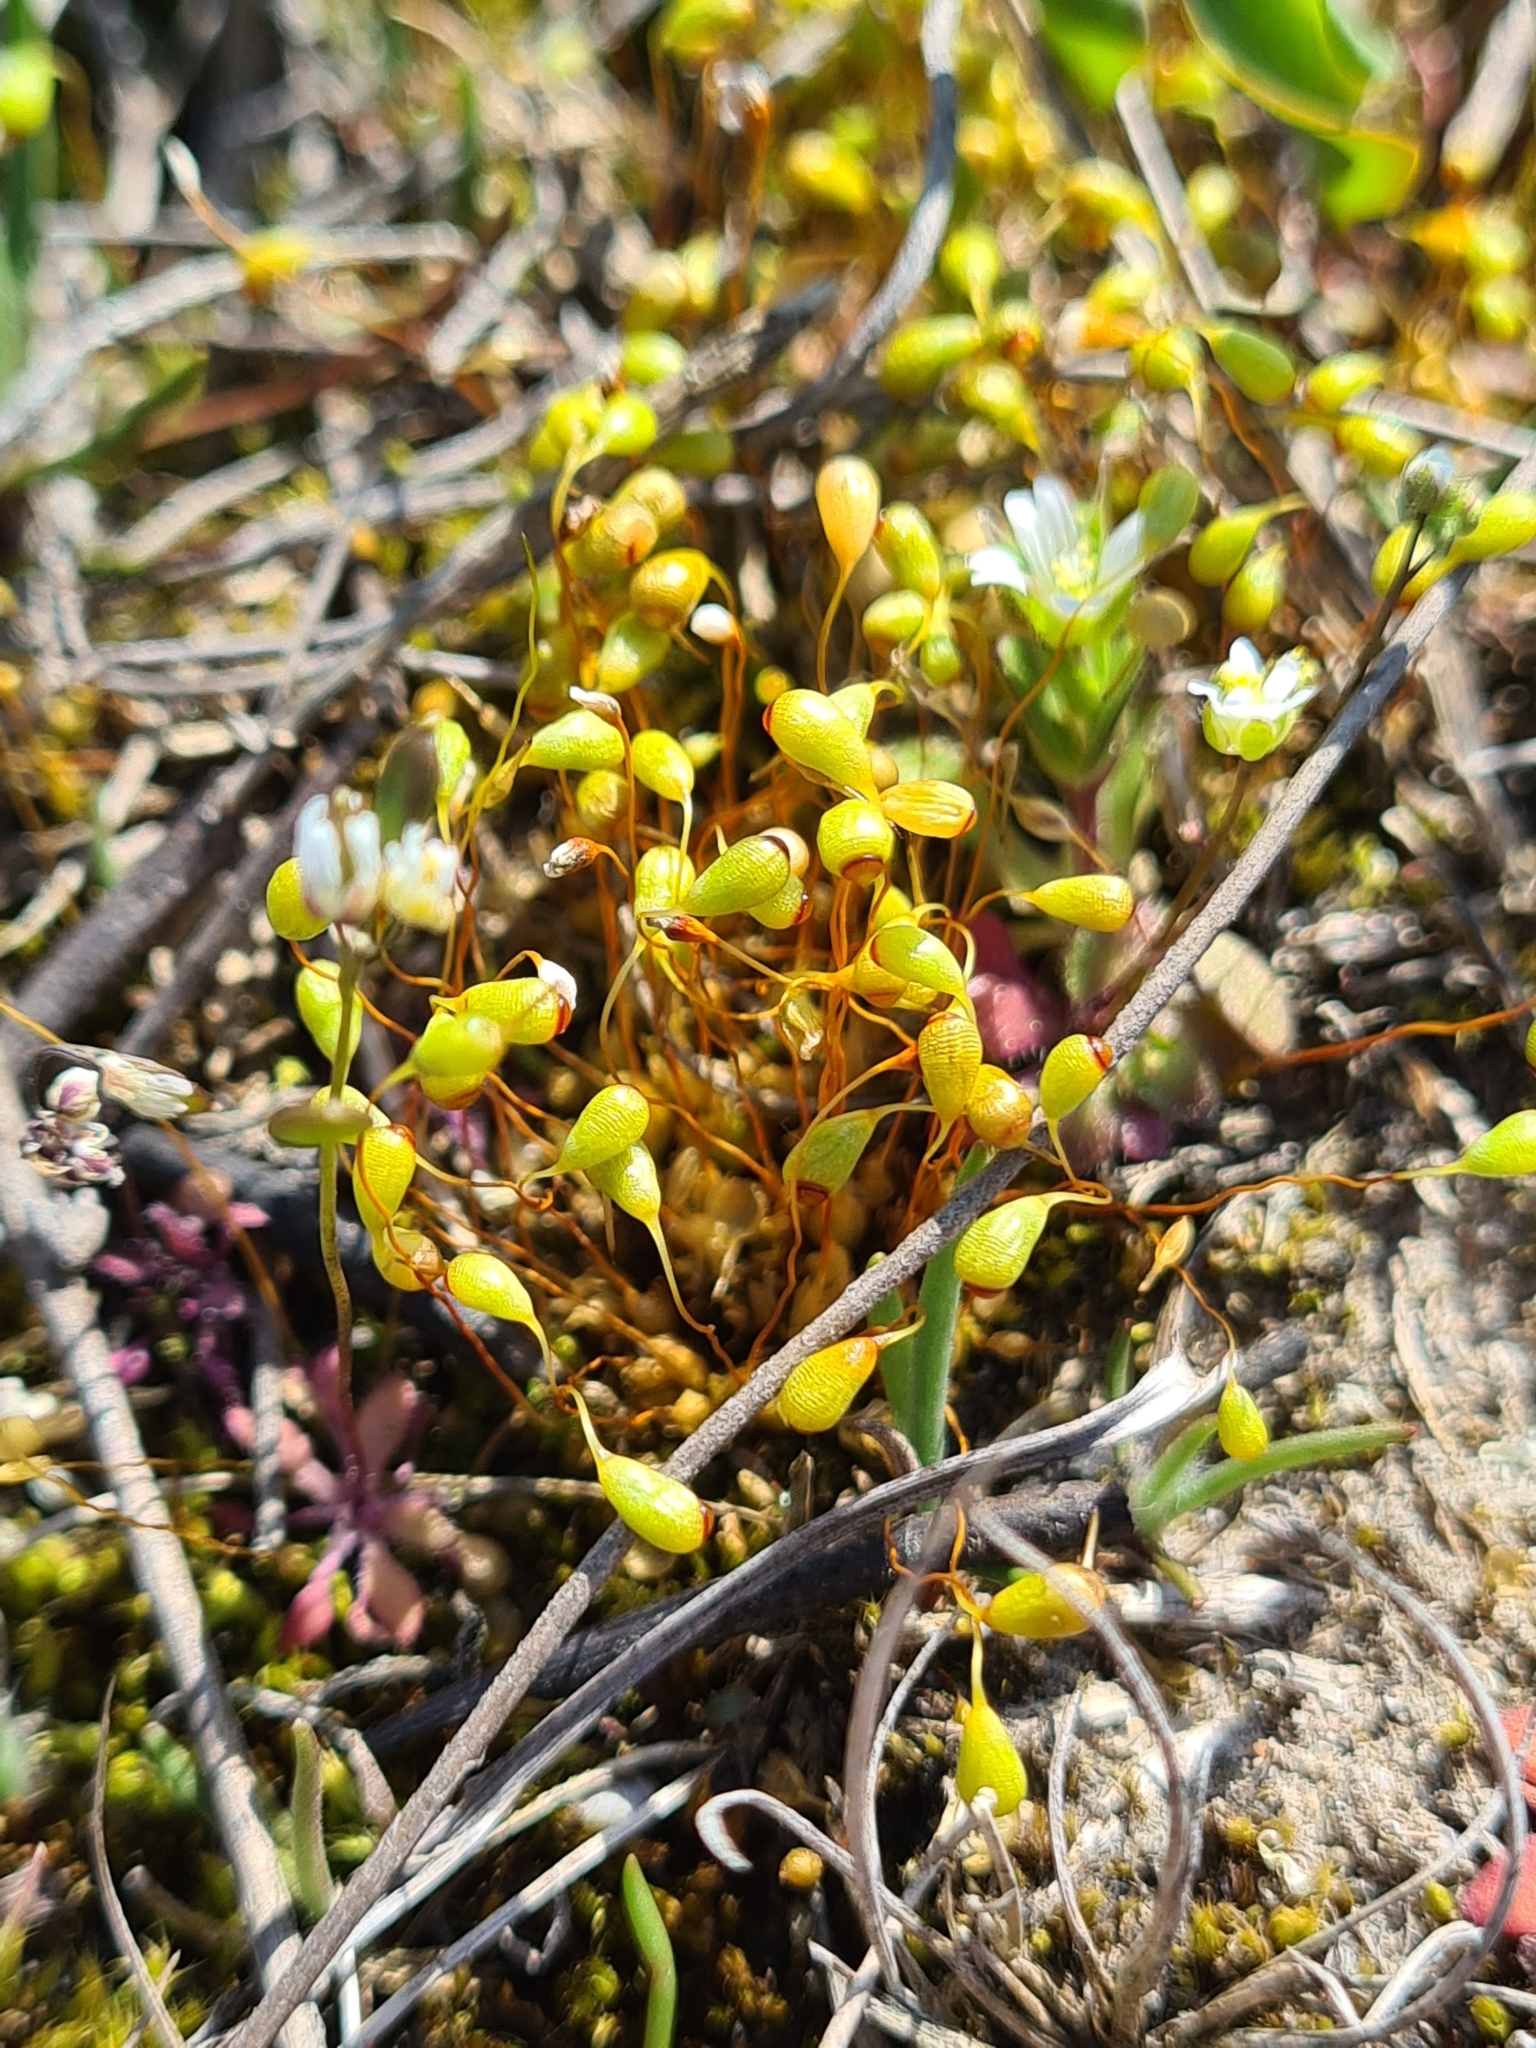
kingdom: Plantae
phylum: Bryophyta
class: Bryopsida
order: Funariales
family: Funariaceae
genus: Funaria
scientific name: Funaria hygrometrica
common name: Common cord moss
